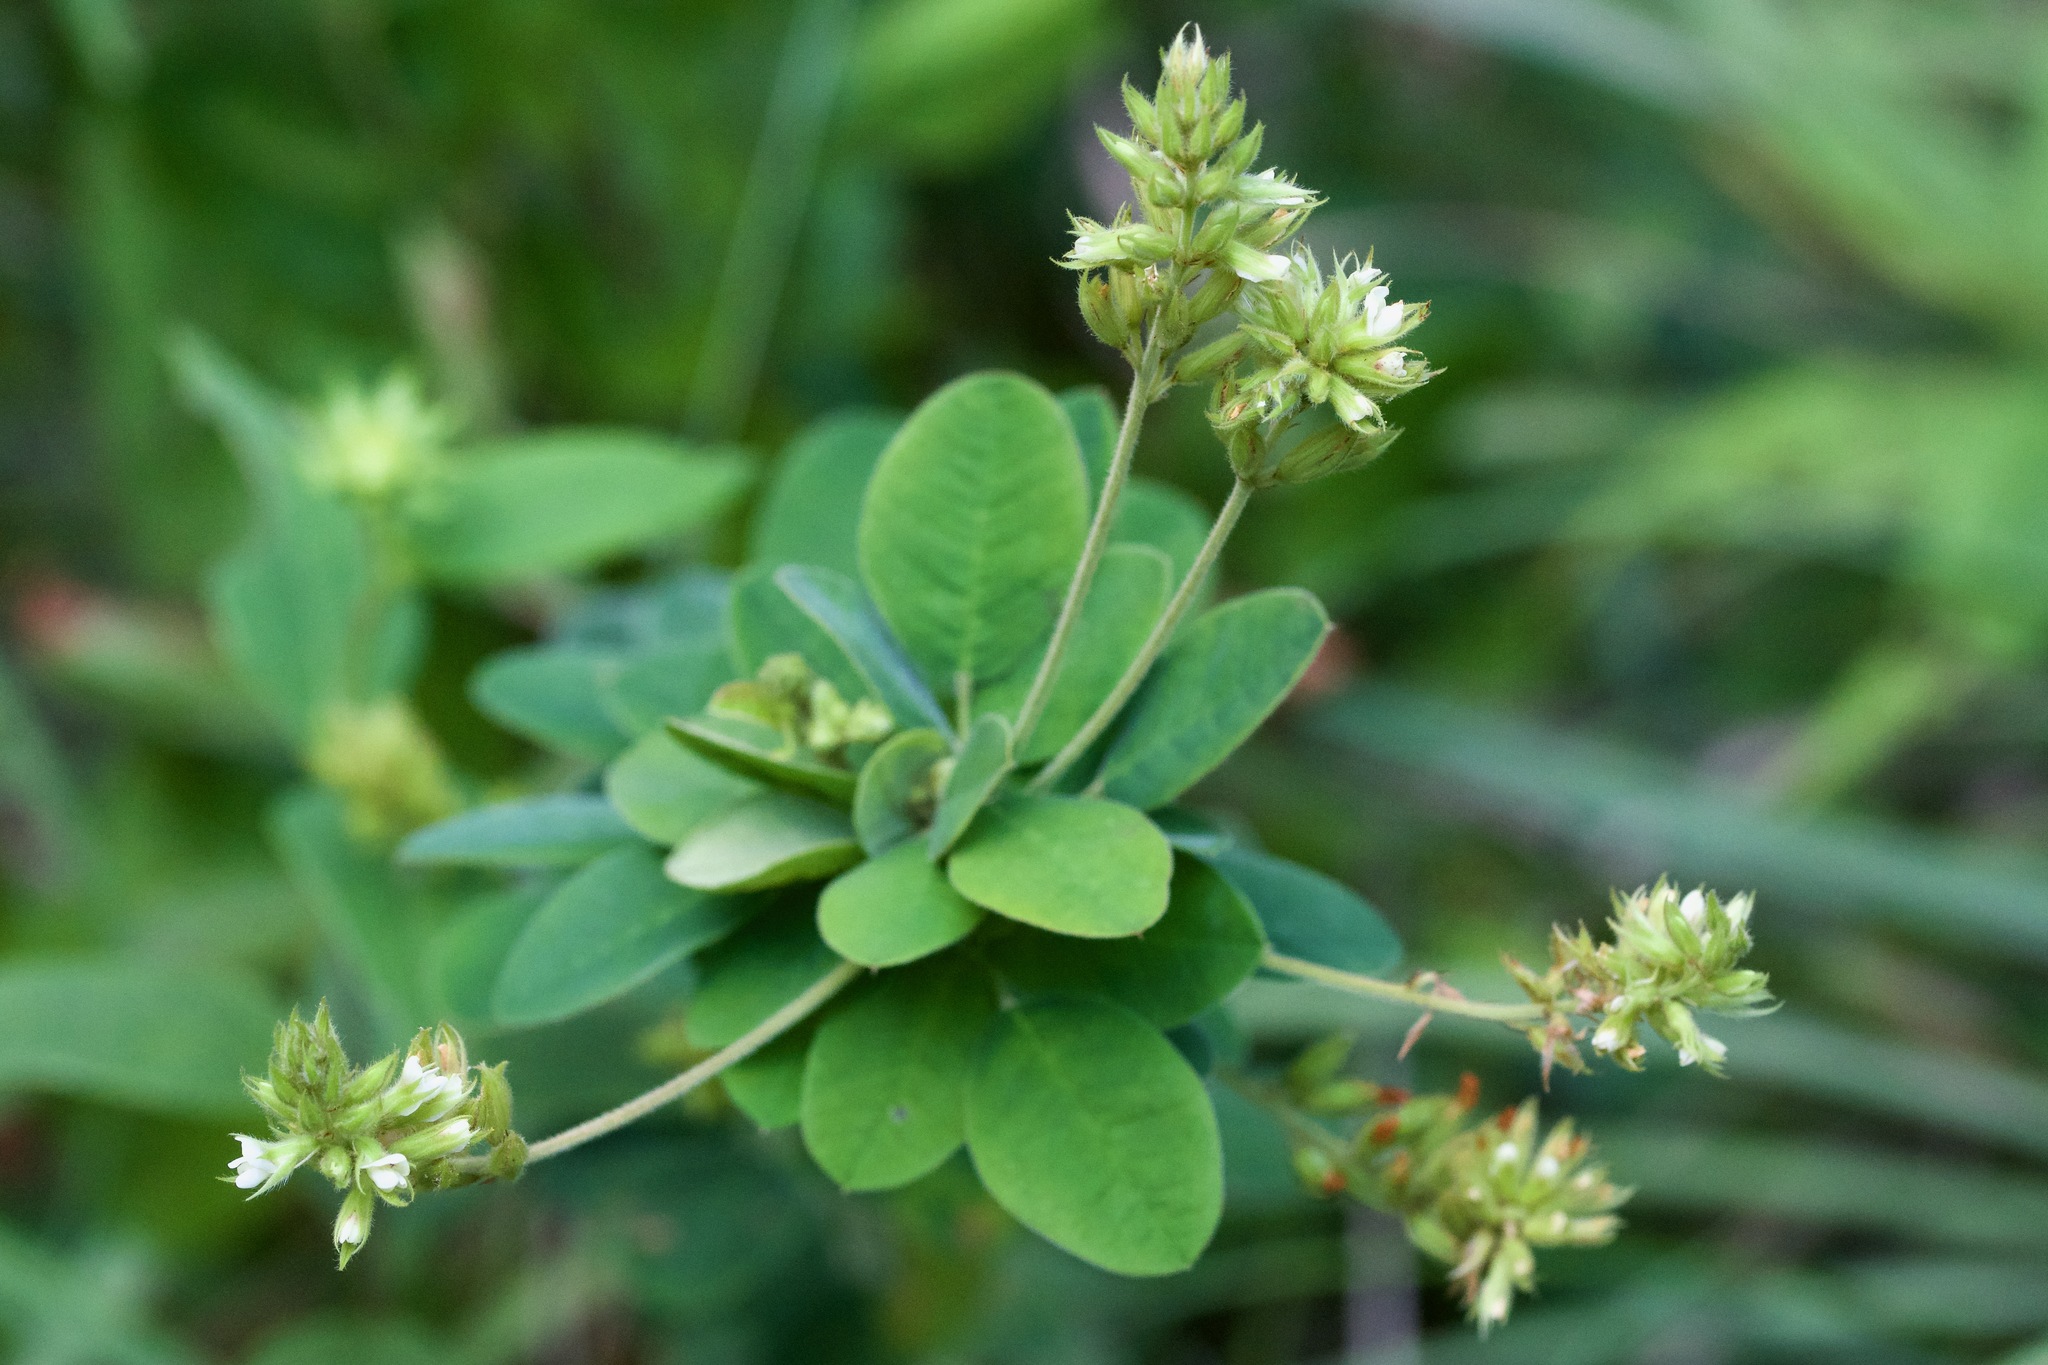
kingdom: Plantae
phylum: Tracheophyta
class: Magnoliopsida
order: Fabales
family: Fabaceae
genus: Lespedeza
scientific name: Lespedeza hirta
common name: Hairy lespedeza
